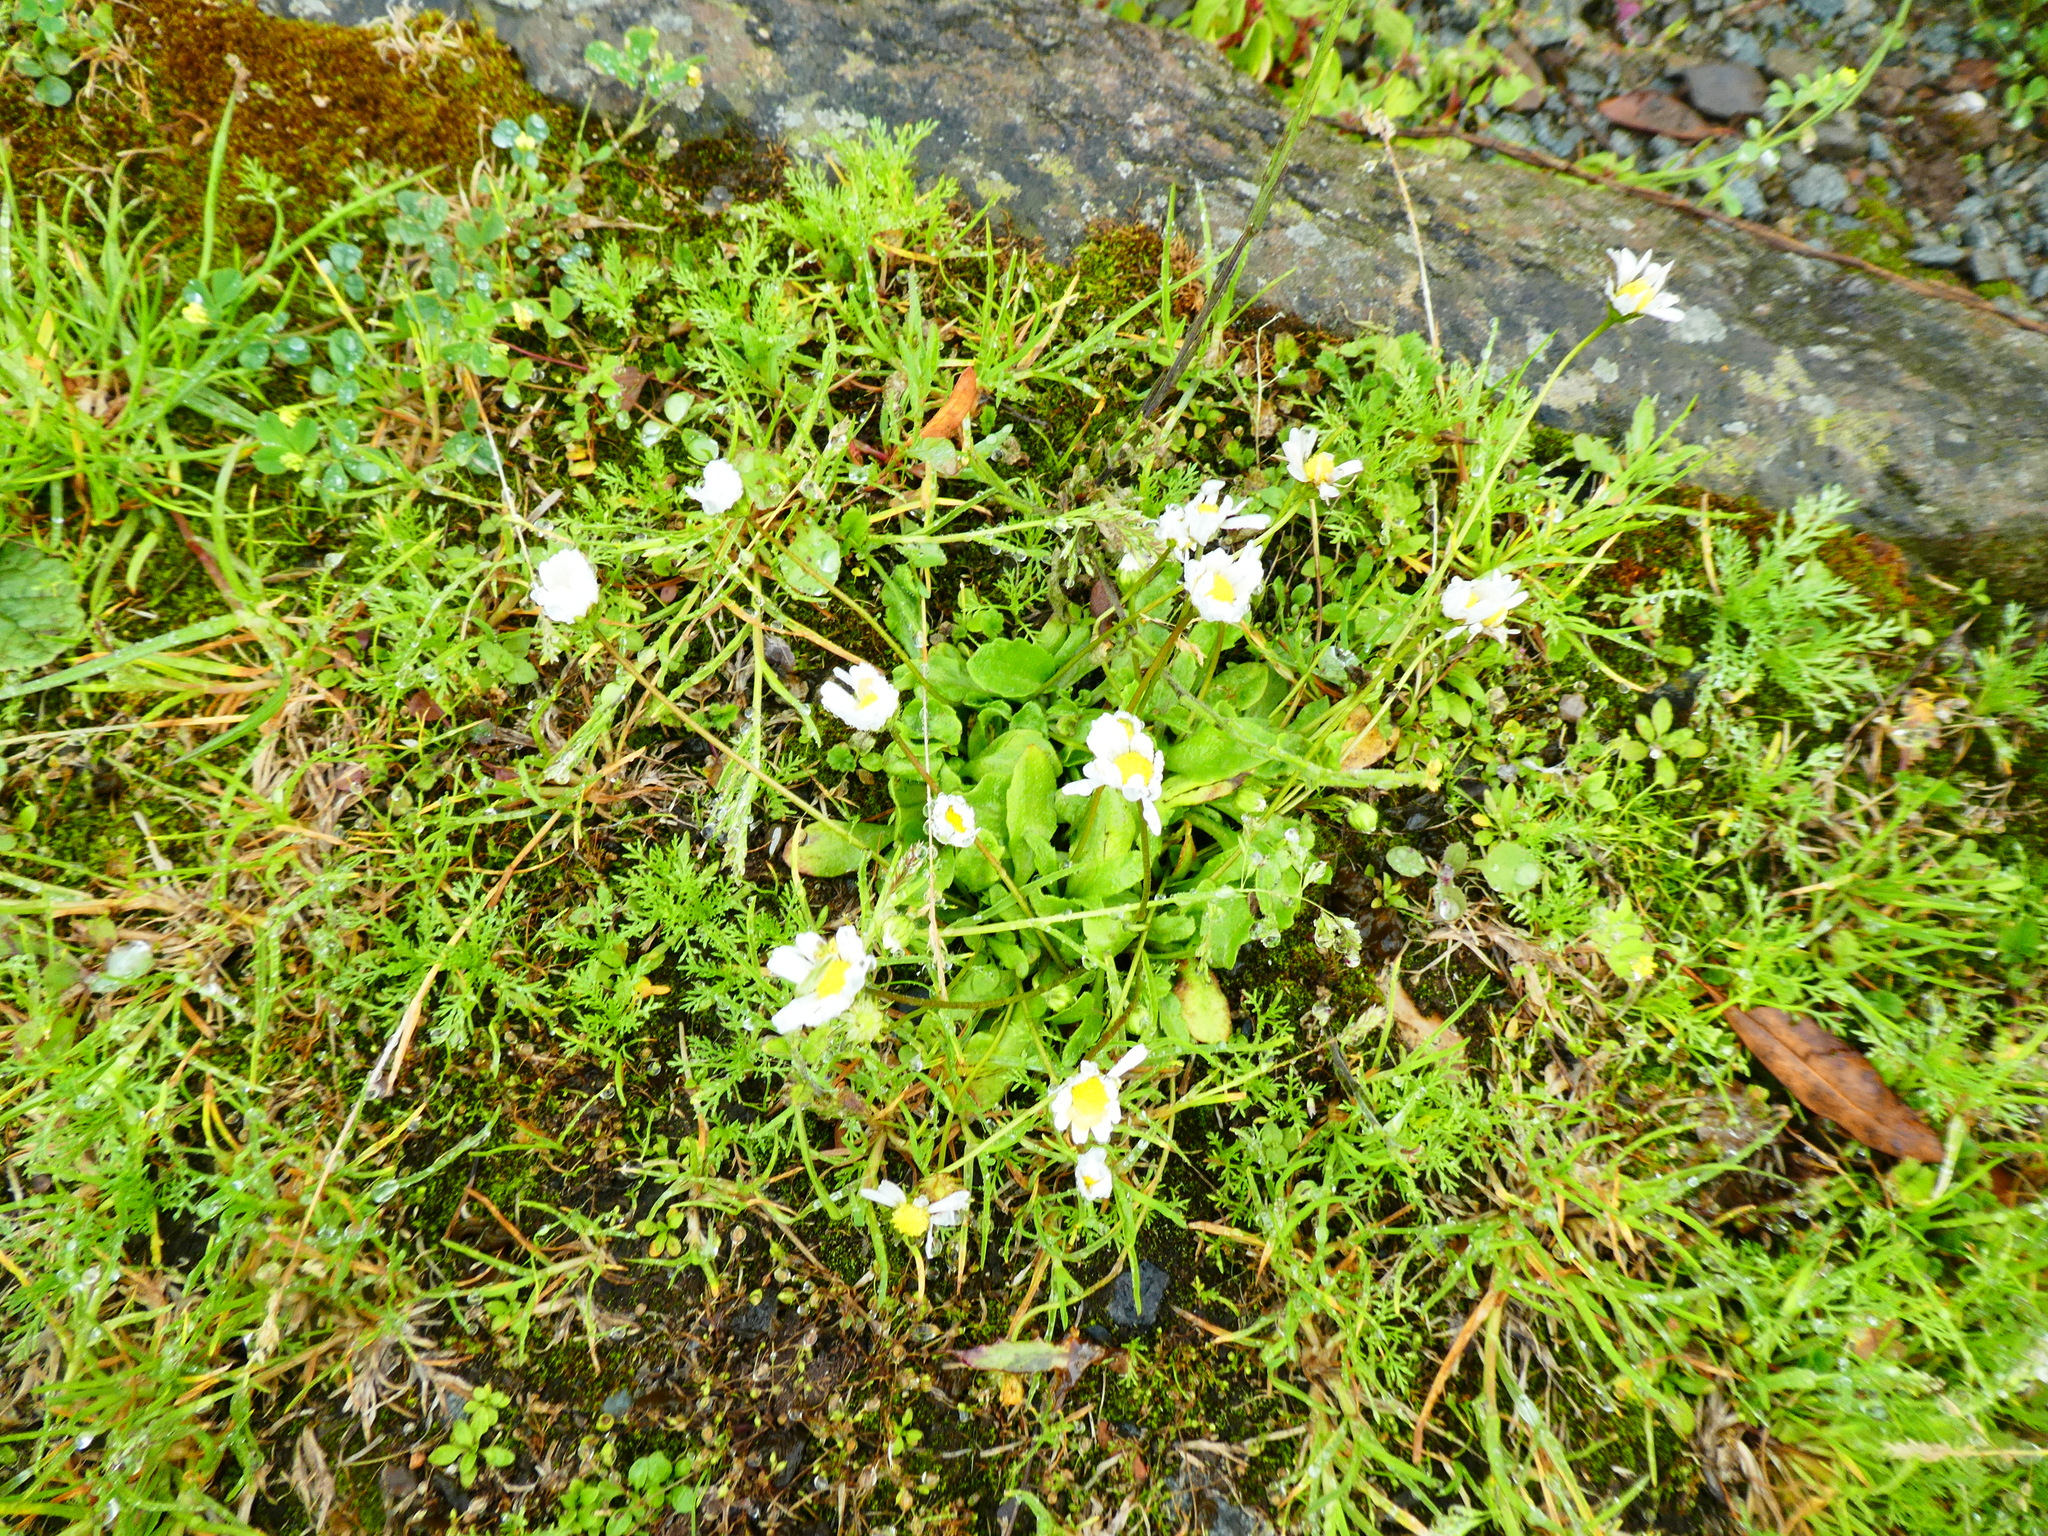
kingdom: Plantae
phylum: Tracheophyta
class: Magnoliopsida
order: Asterales
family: Asteraceae
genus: Bellis
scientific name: Bellis perennis
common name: Lawndaisy
